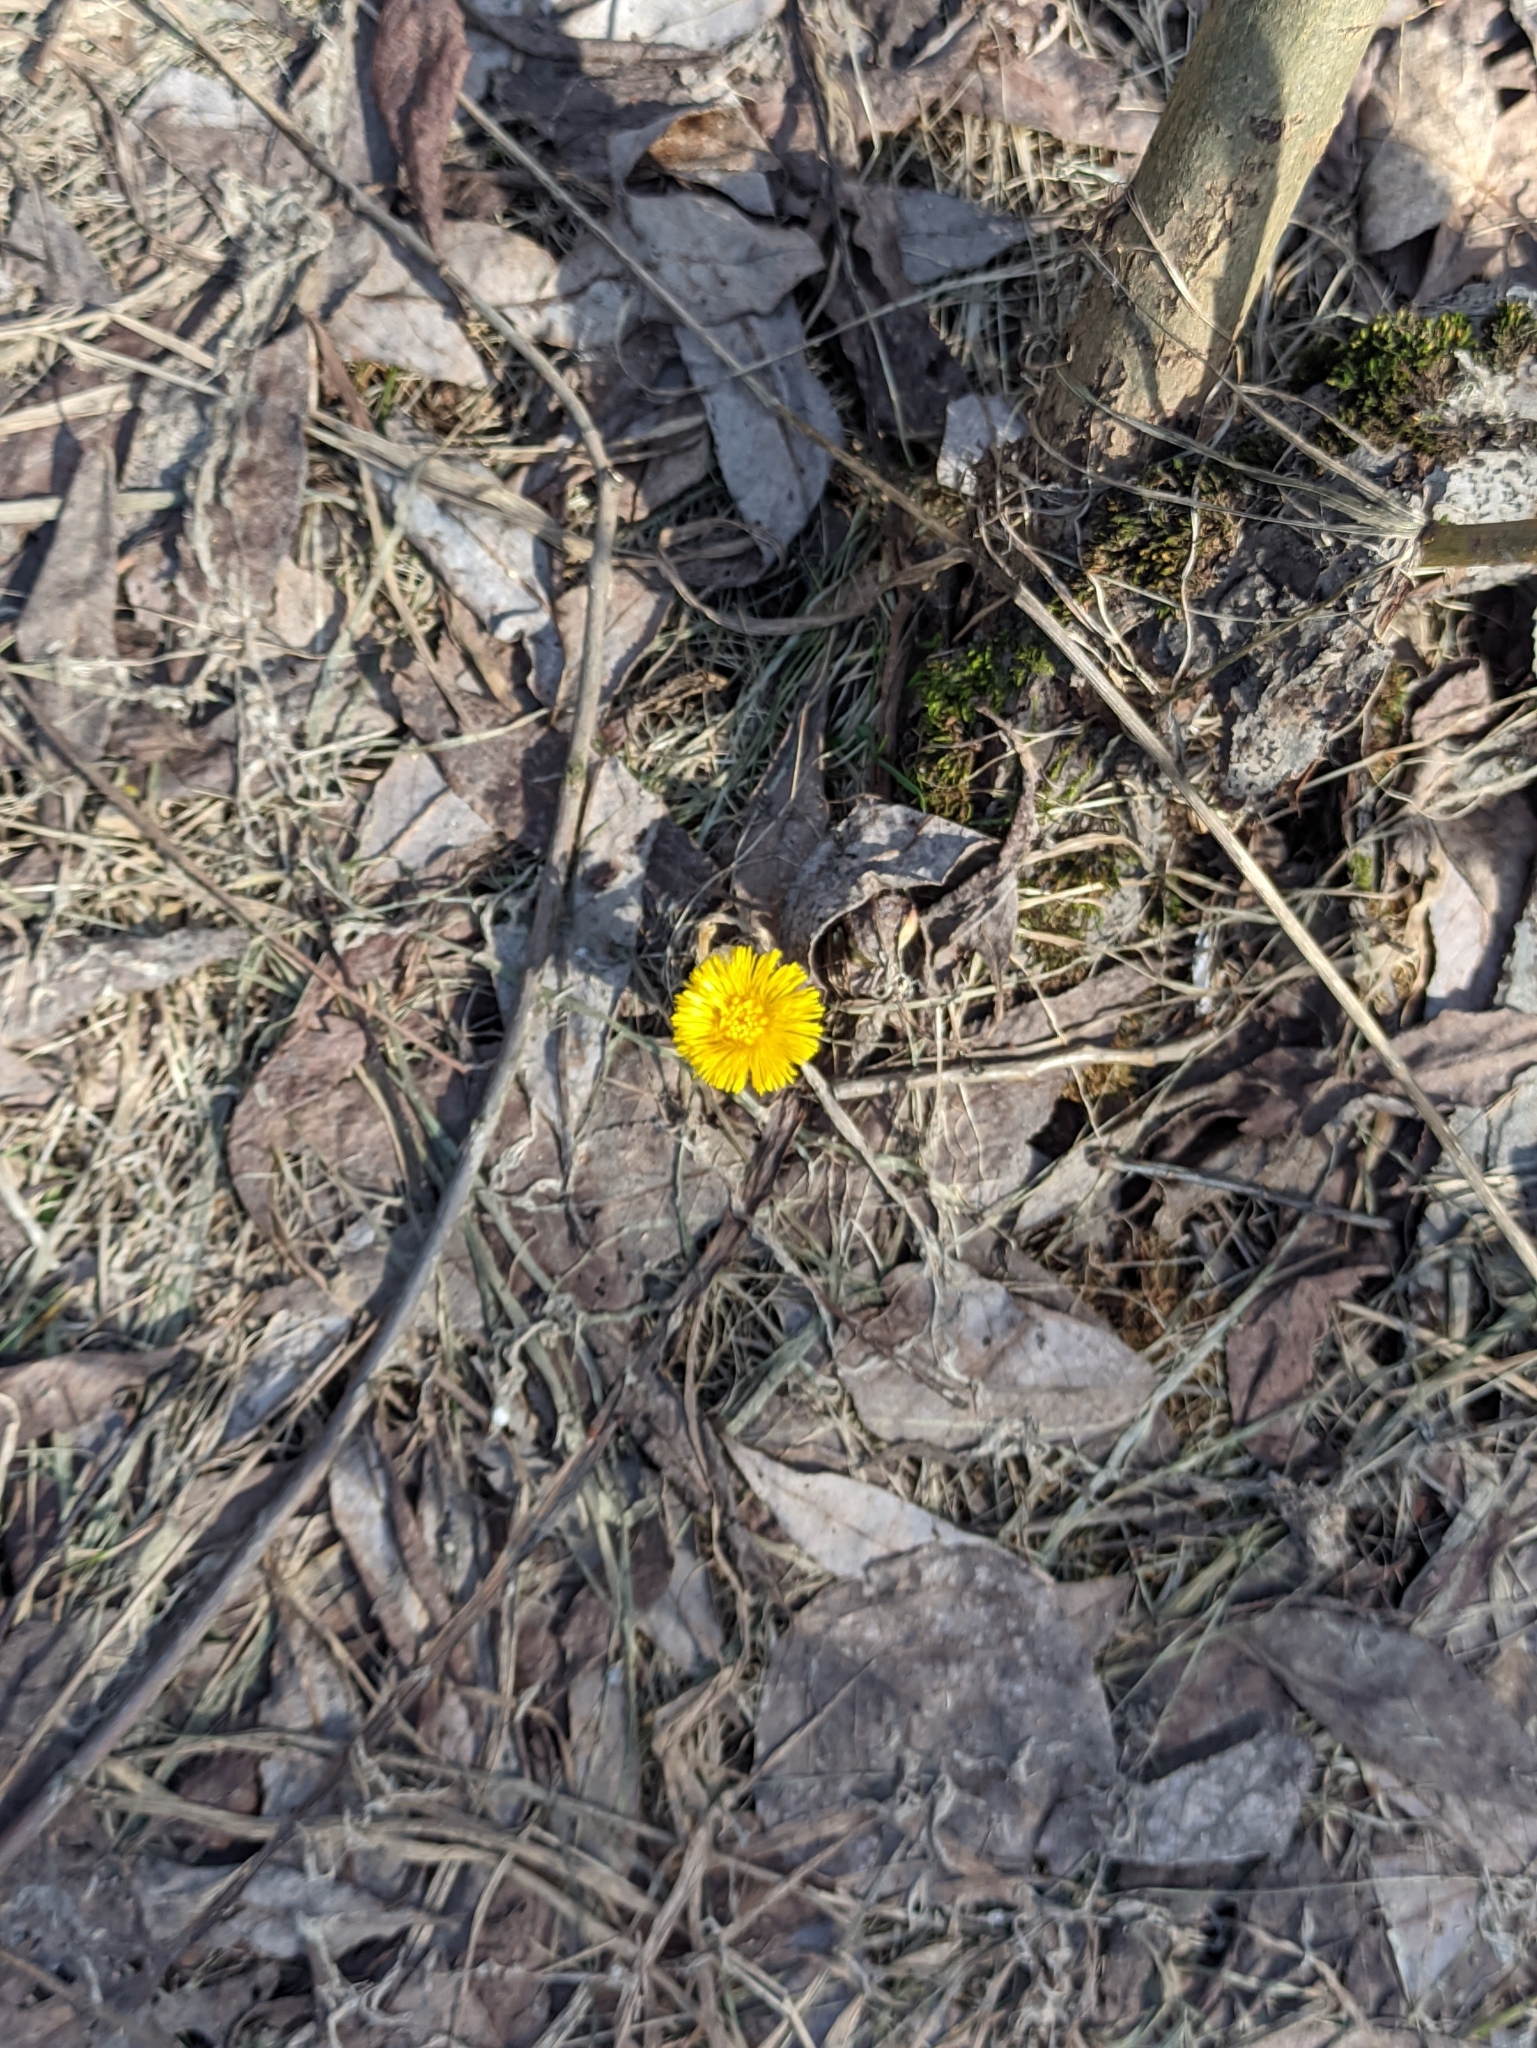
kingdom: Plantae
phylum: Tracheophyta
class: Magnoliopsida
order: Asterales
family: Asteraceae
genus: Tussilago
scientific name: Tussilago farfara
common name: Coltsfoot
